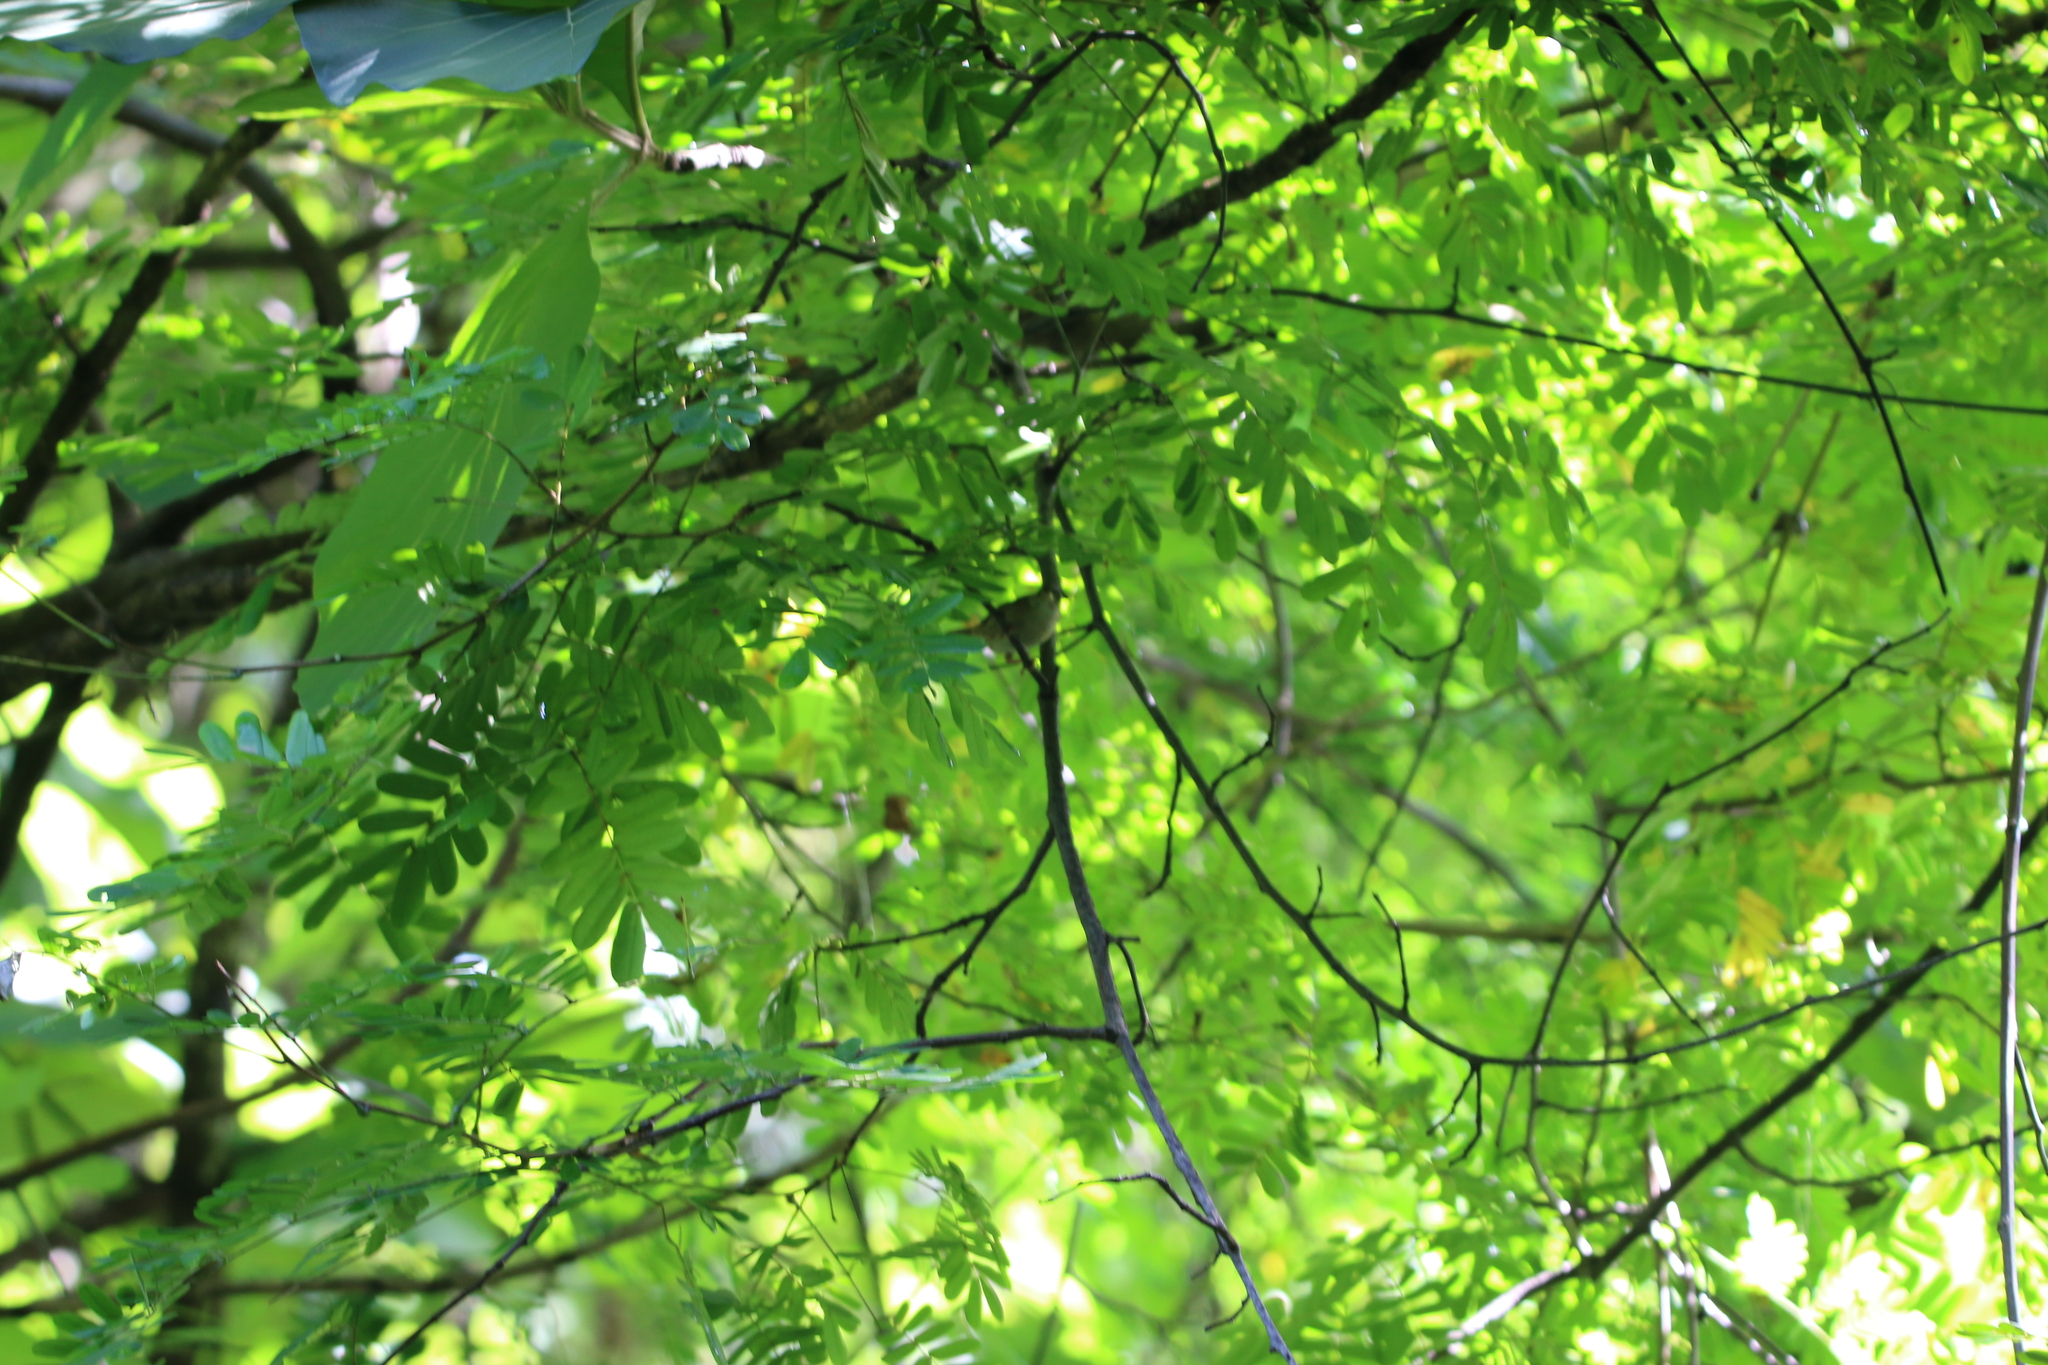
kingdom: Animalia
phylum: Chordata
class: Aves
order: Passeriformes
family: Troglodytidae
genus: Troglodytes
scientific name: Troglodytes aedon
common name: House wren
